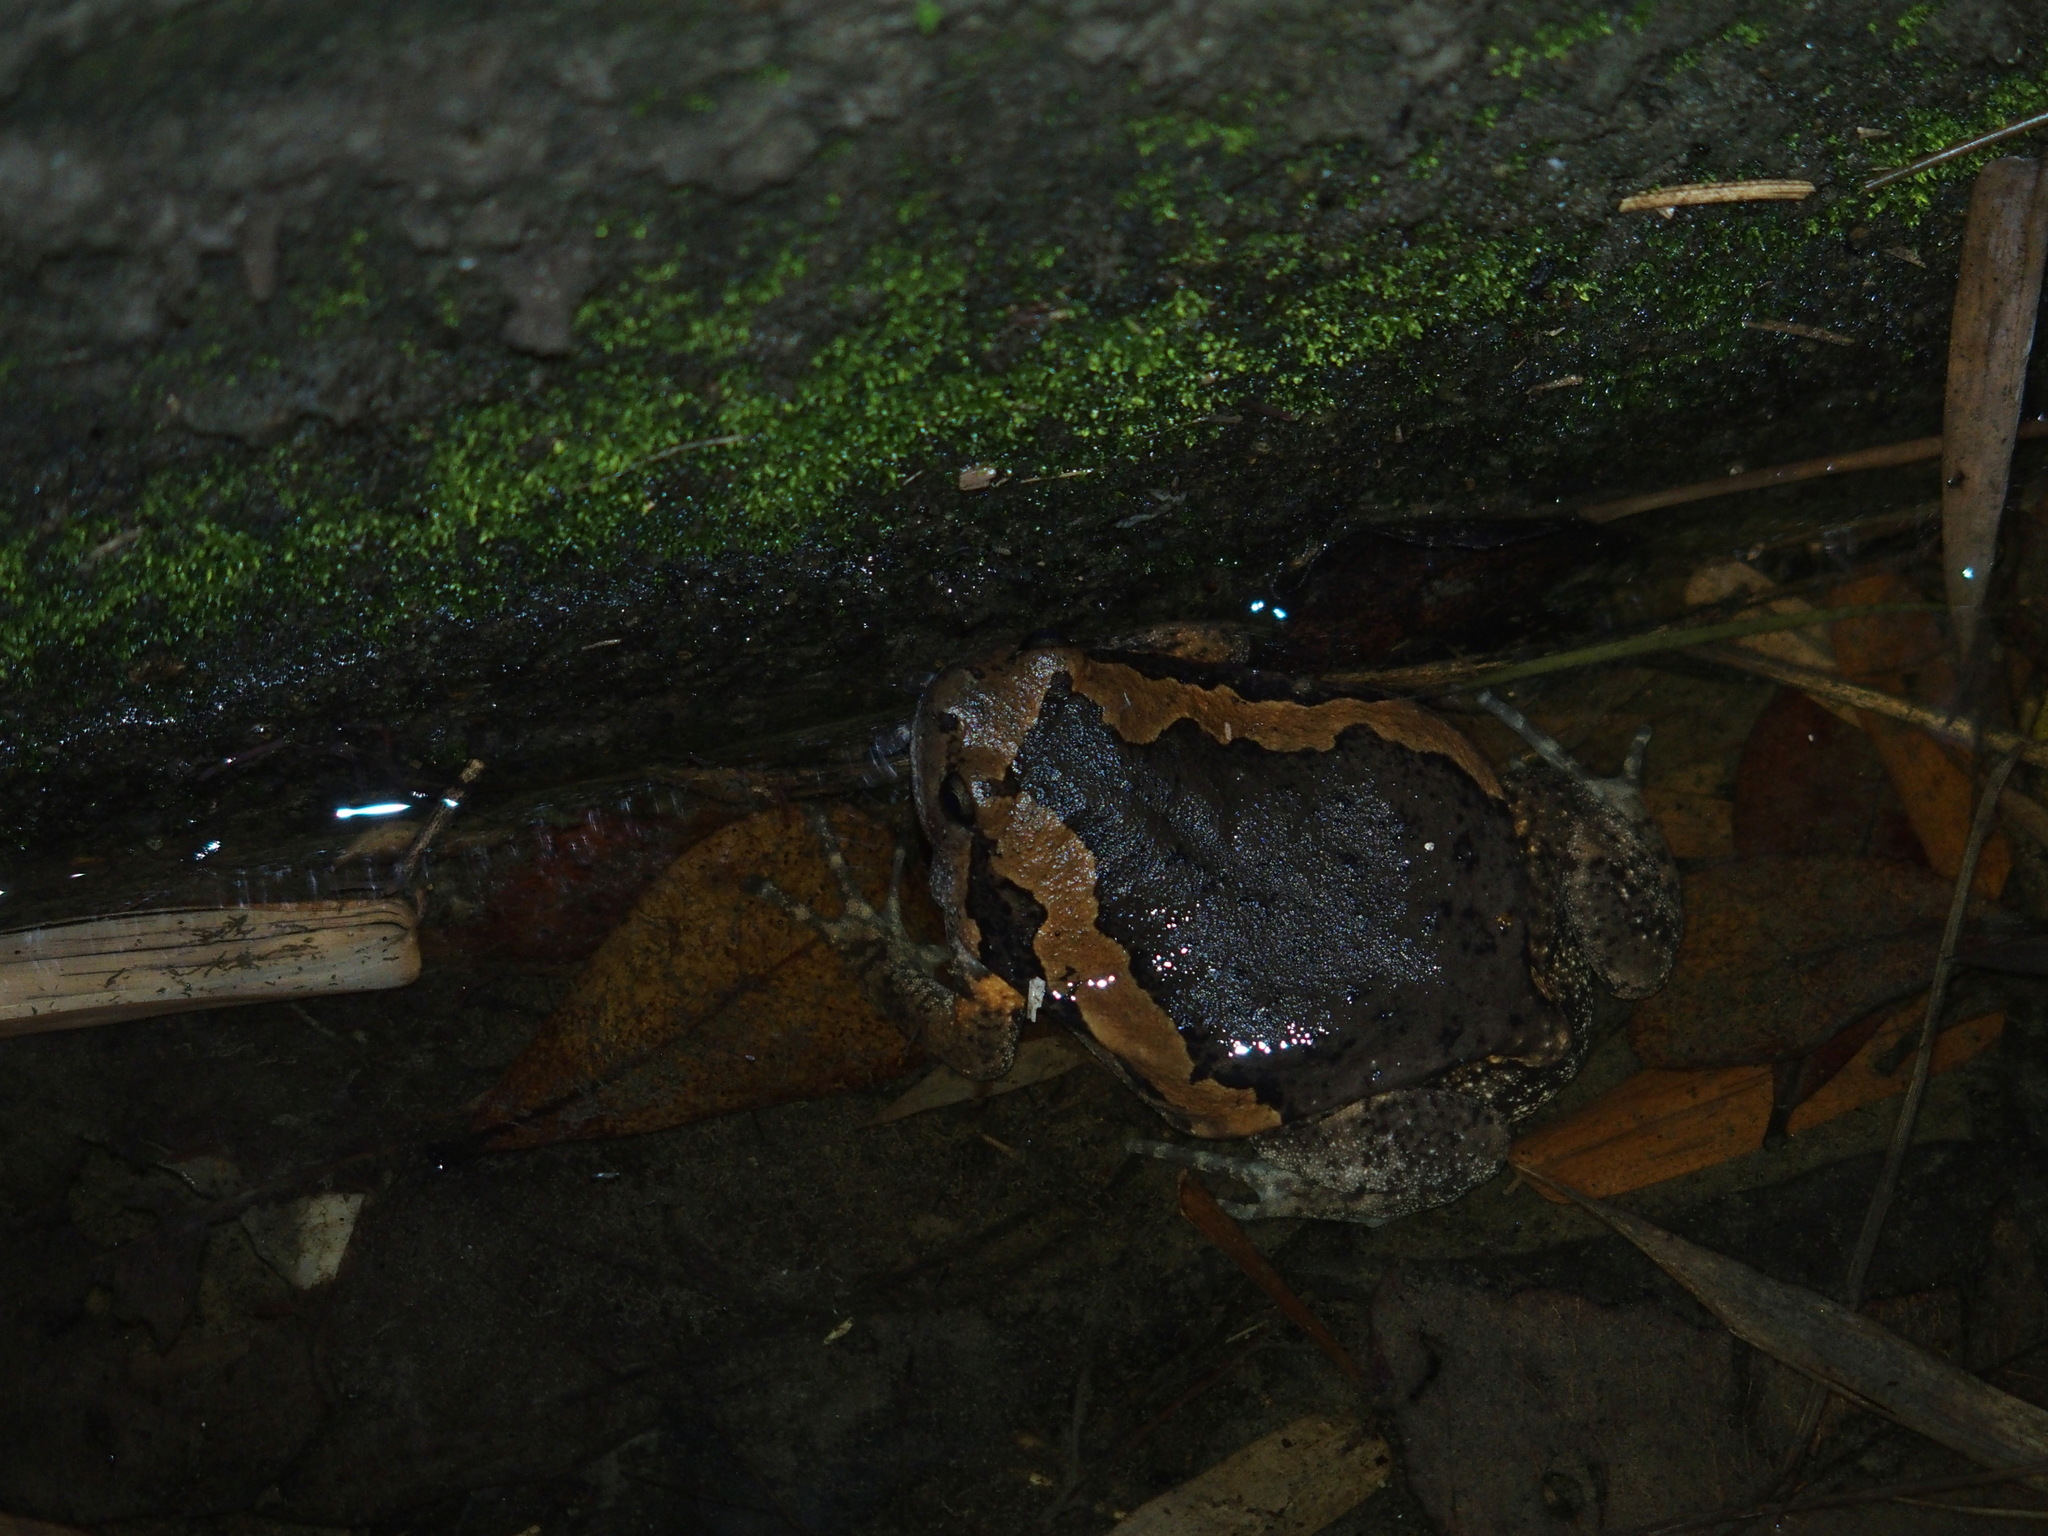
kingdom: Animalia
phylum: Chordata
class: Amphibia
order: Anura
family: Microhylidae
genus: Kaloula
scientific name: Kaloula pulchra
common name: Common,banded bullfrog
